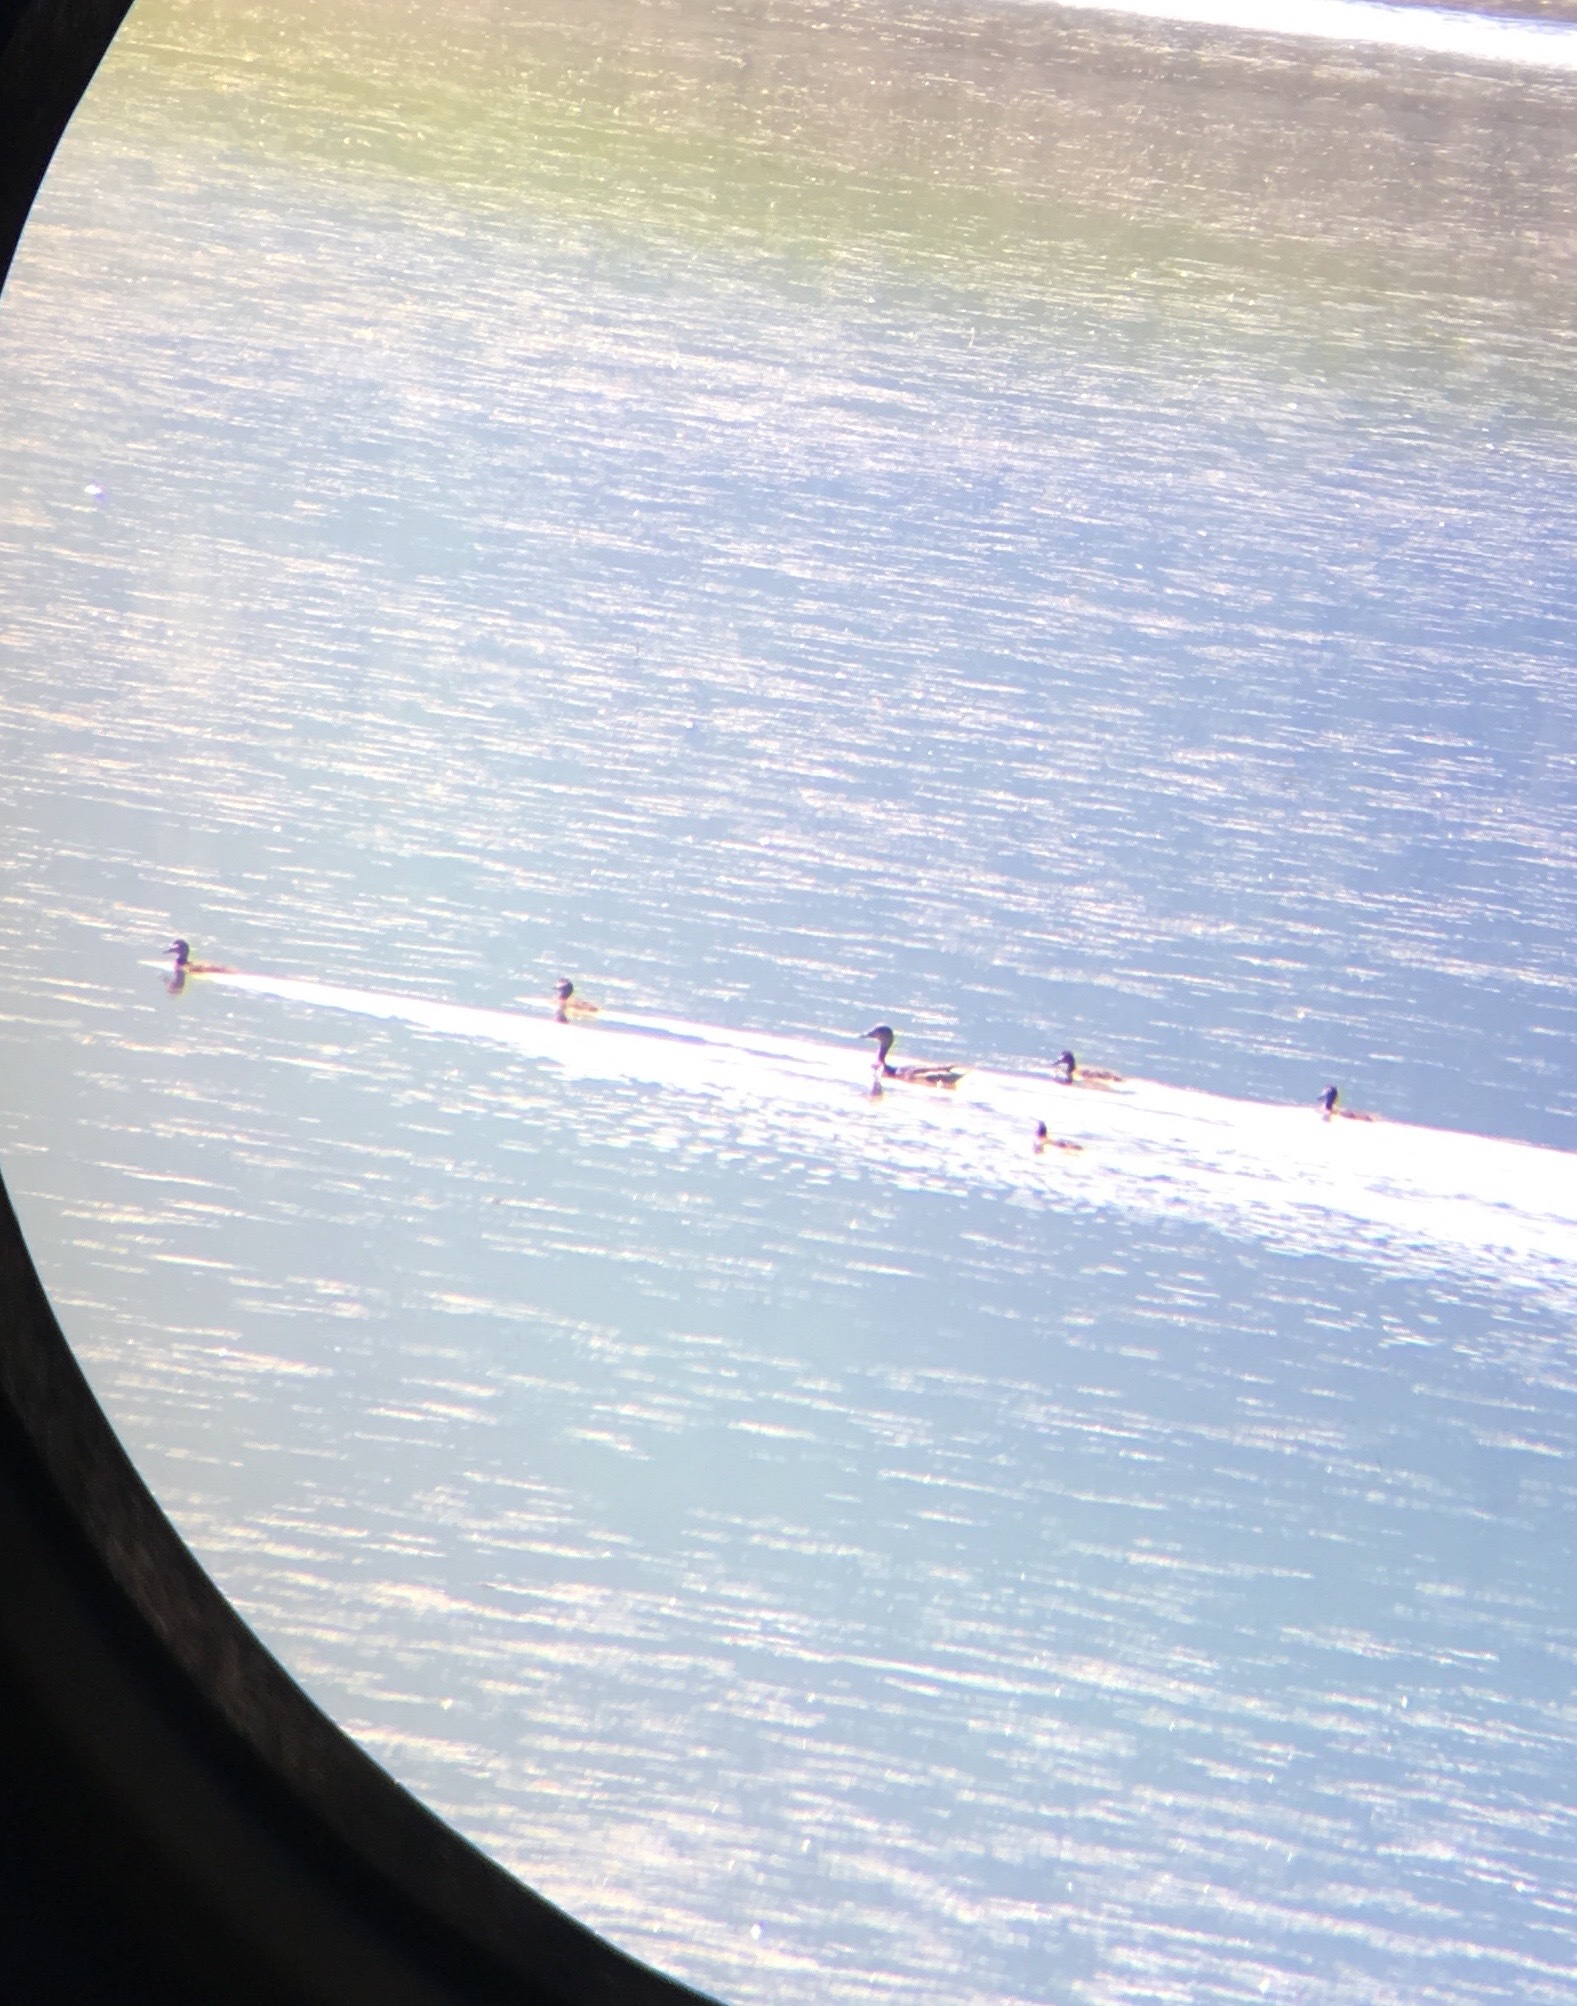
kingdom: Animalia
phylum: Chordata
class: Aves
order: Anseriformes
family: Anatidae
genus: Anas
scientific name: Anas acuta
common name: Northern pintail
